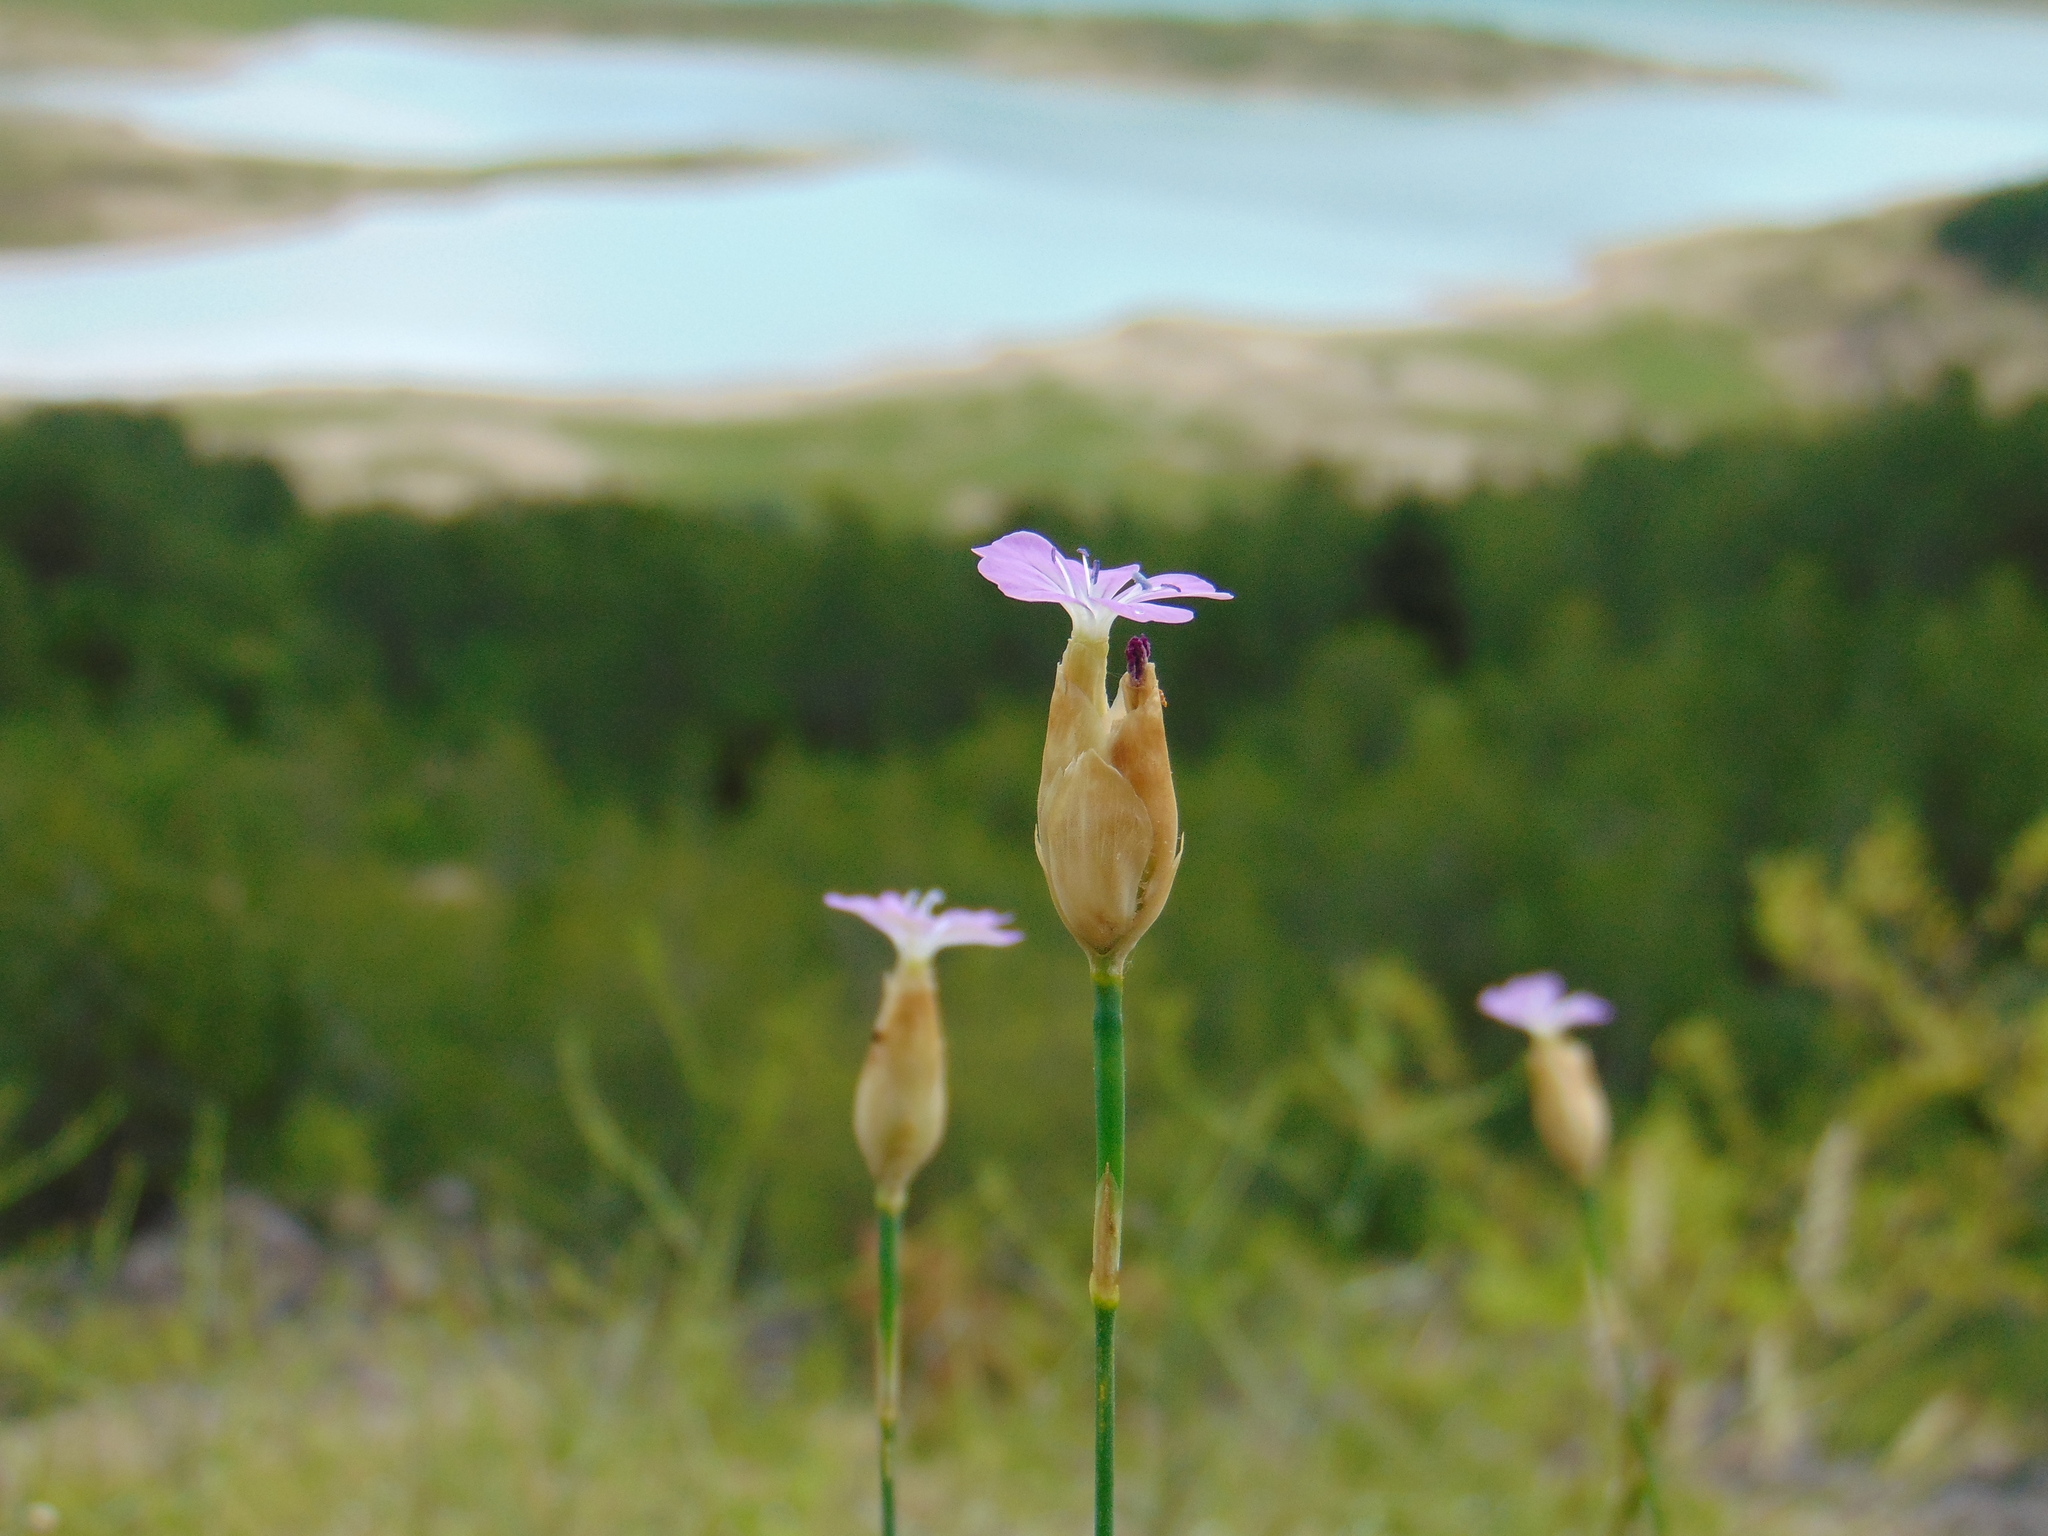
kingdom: Plantae
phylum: Tracheophyta
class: Magnoliopsida
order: Caryophyllales
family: Caryophyllaceae
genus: Petrorhagia
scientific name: Petrorhagia prolifera
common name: Proliferous pink
